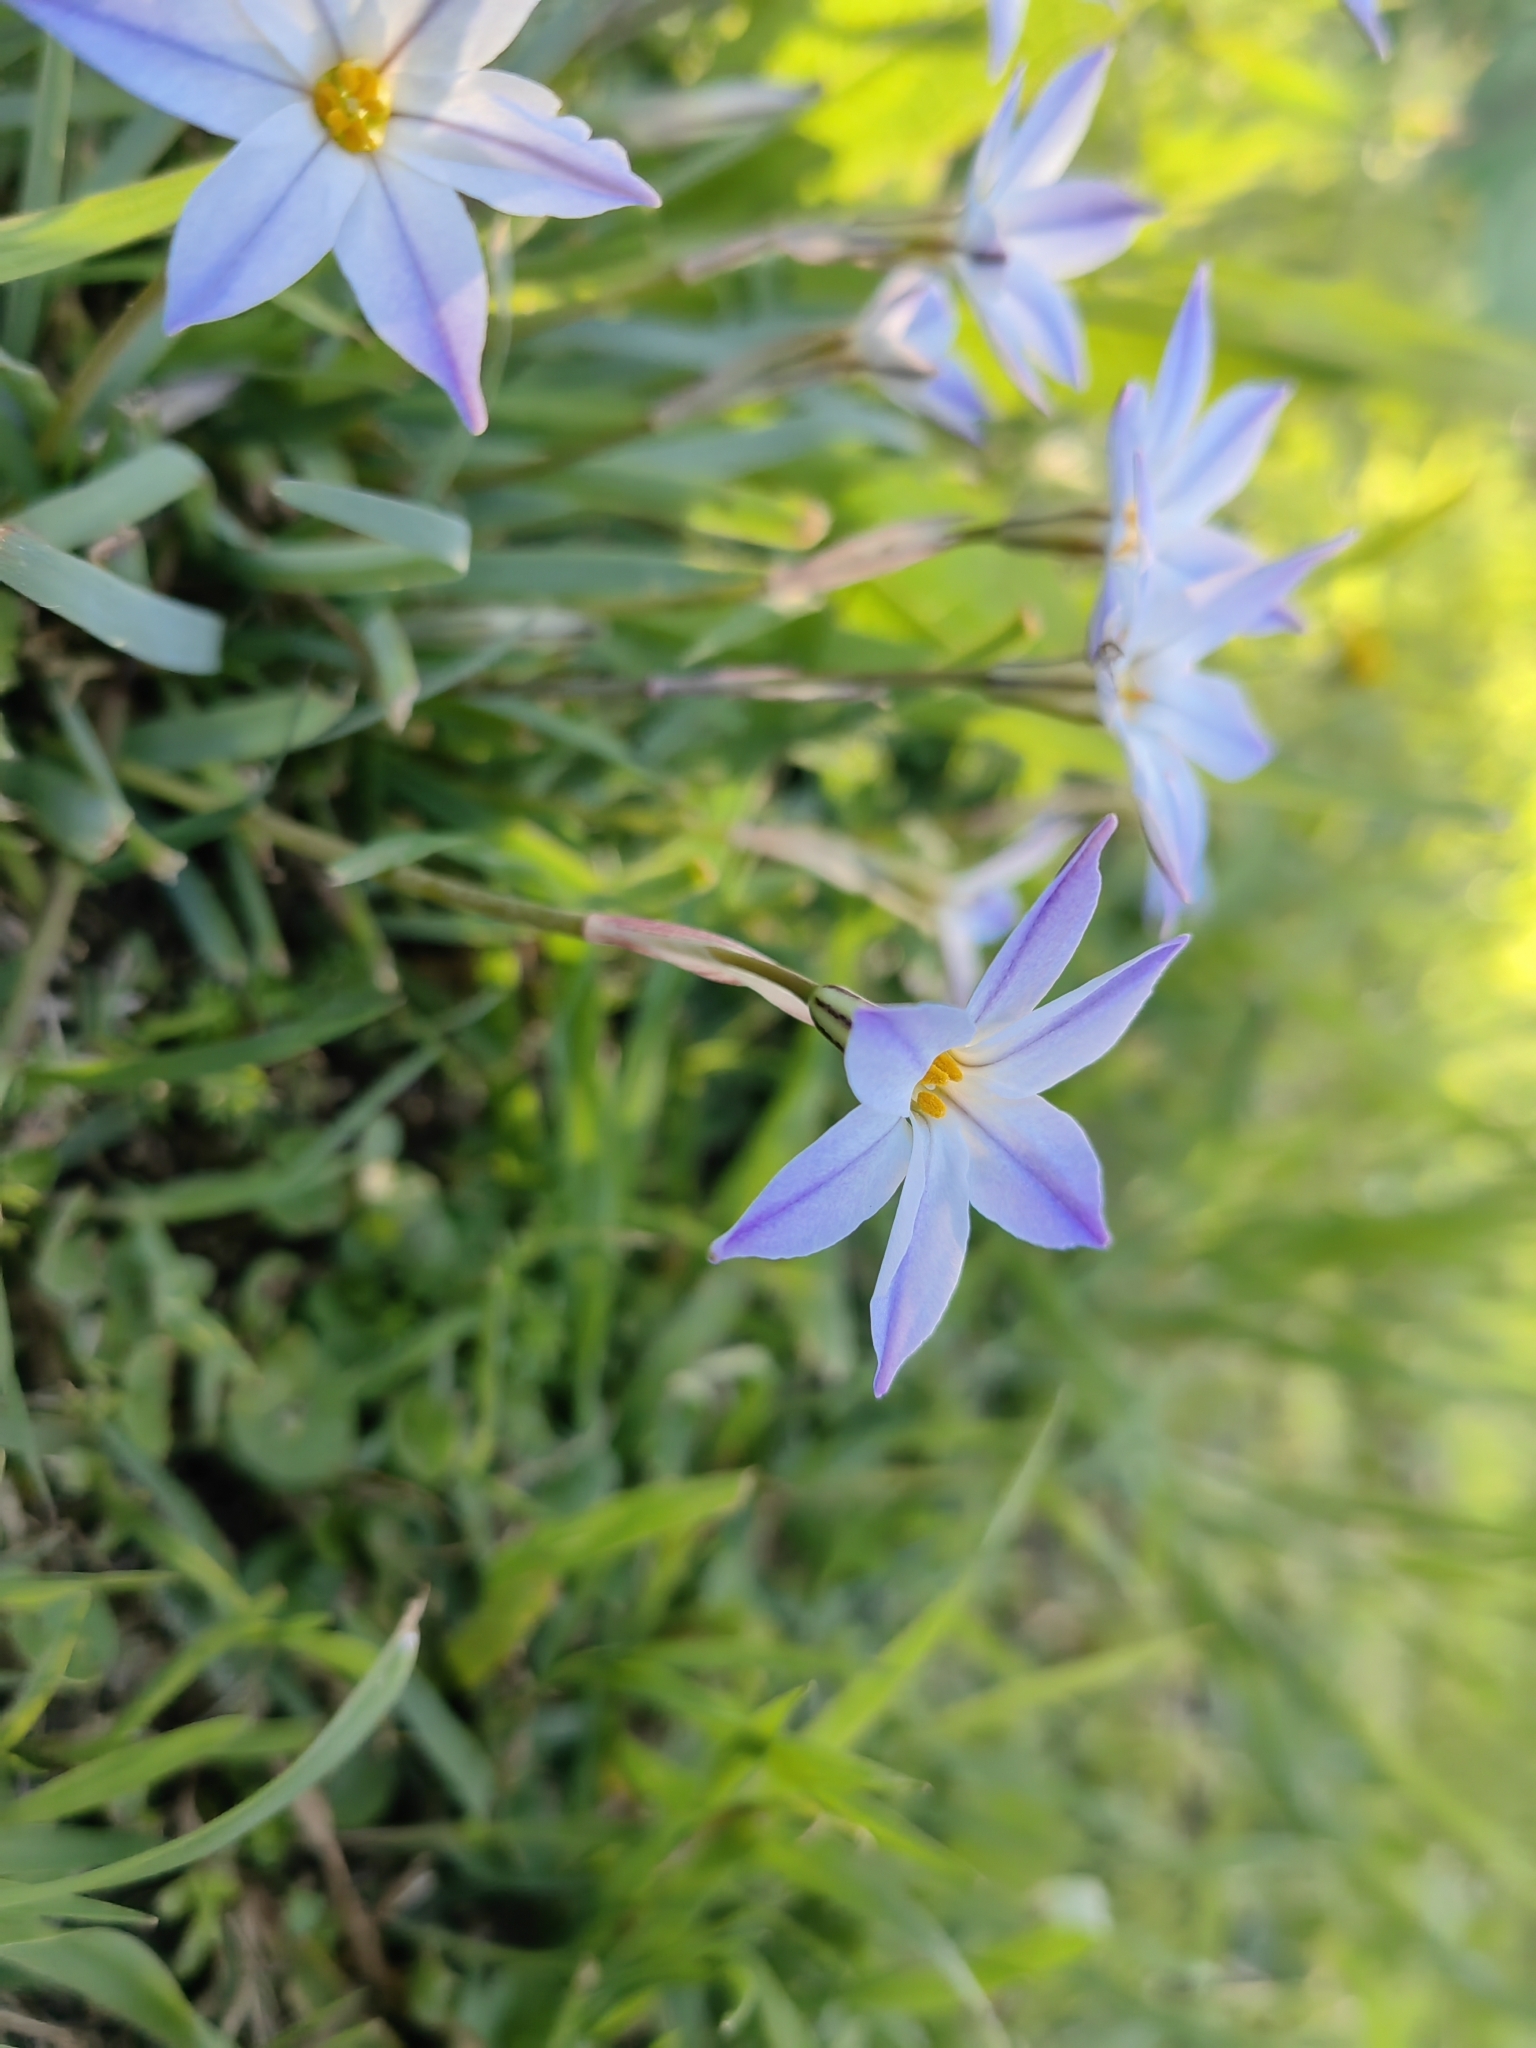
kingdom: Plantae
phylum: Tracheophyta
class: Liliopsida
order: Asparagales
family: Amaryllidaceae
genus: Ipheion
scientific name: Ipheion uniflorum
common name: Spring starflower
